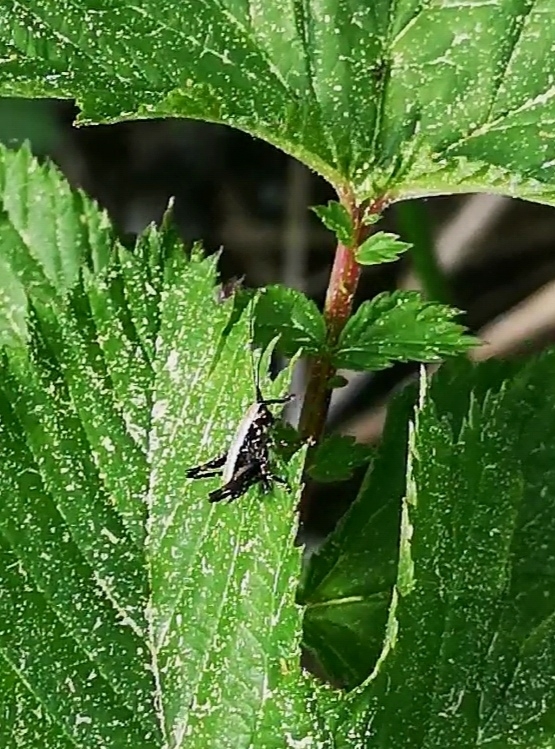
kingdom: Animalia
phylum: Arthropoda
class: Insecta
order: Orthoptera
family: Tettigoniidae
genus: Pholidoptera
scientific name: Pholidoptera griseoaptera
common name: Dark bush-cricket
